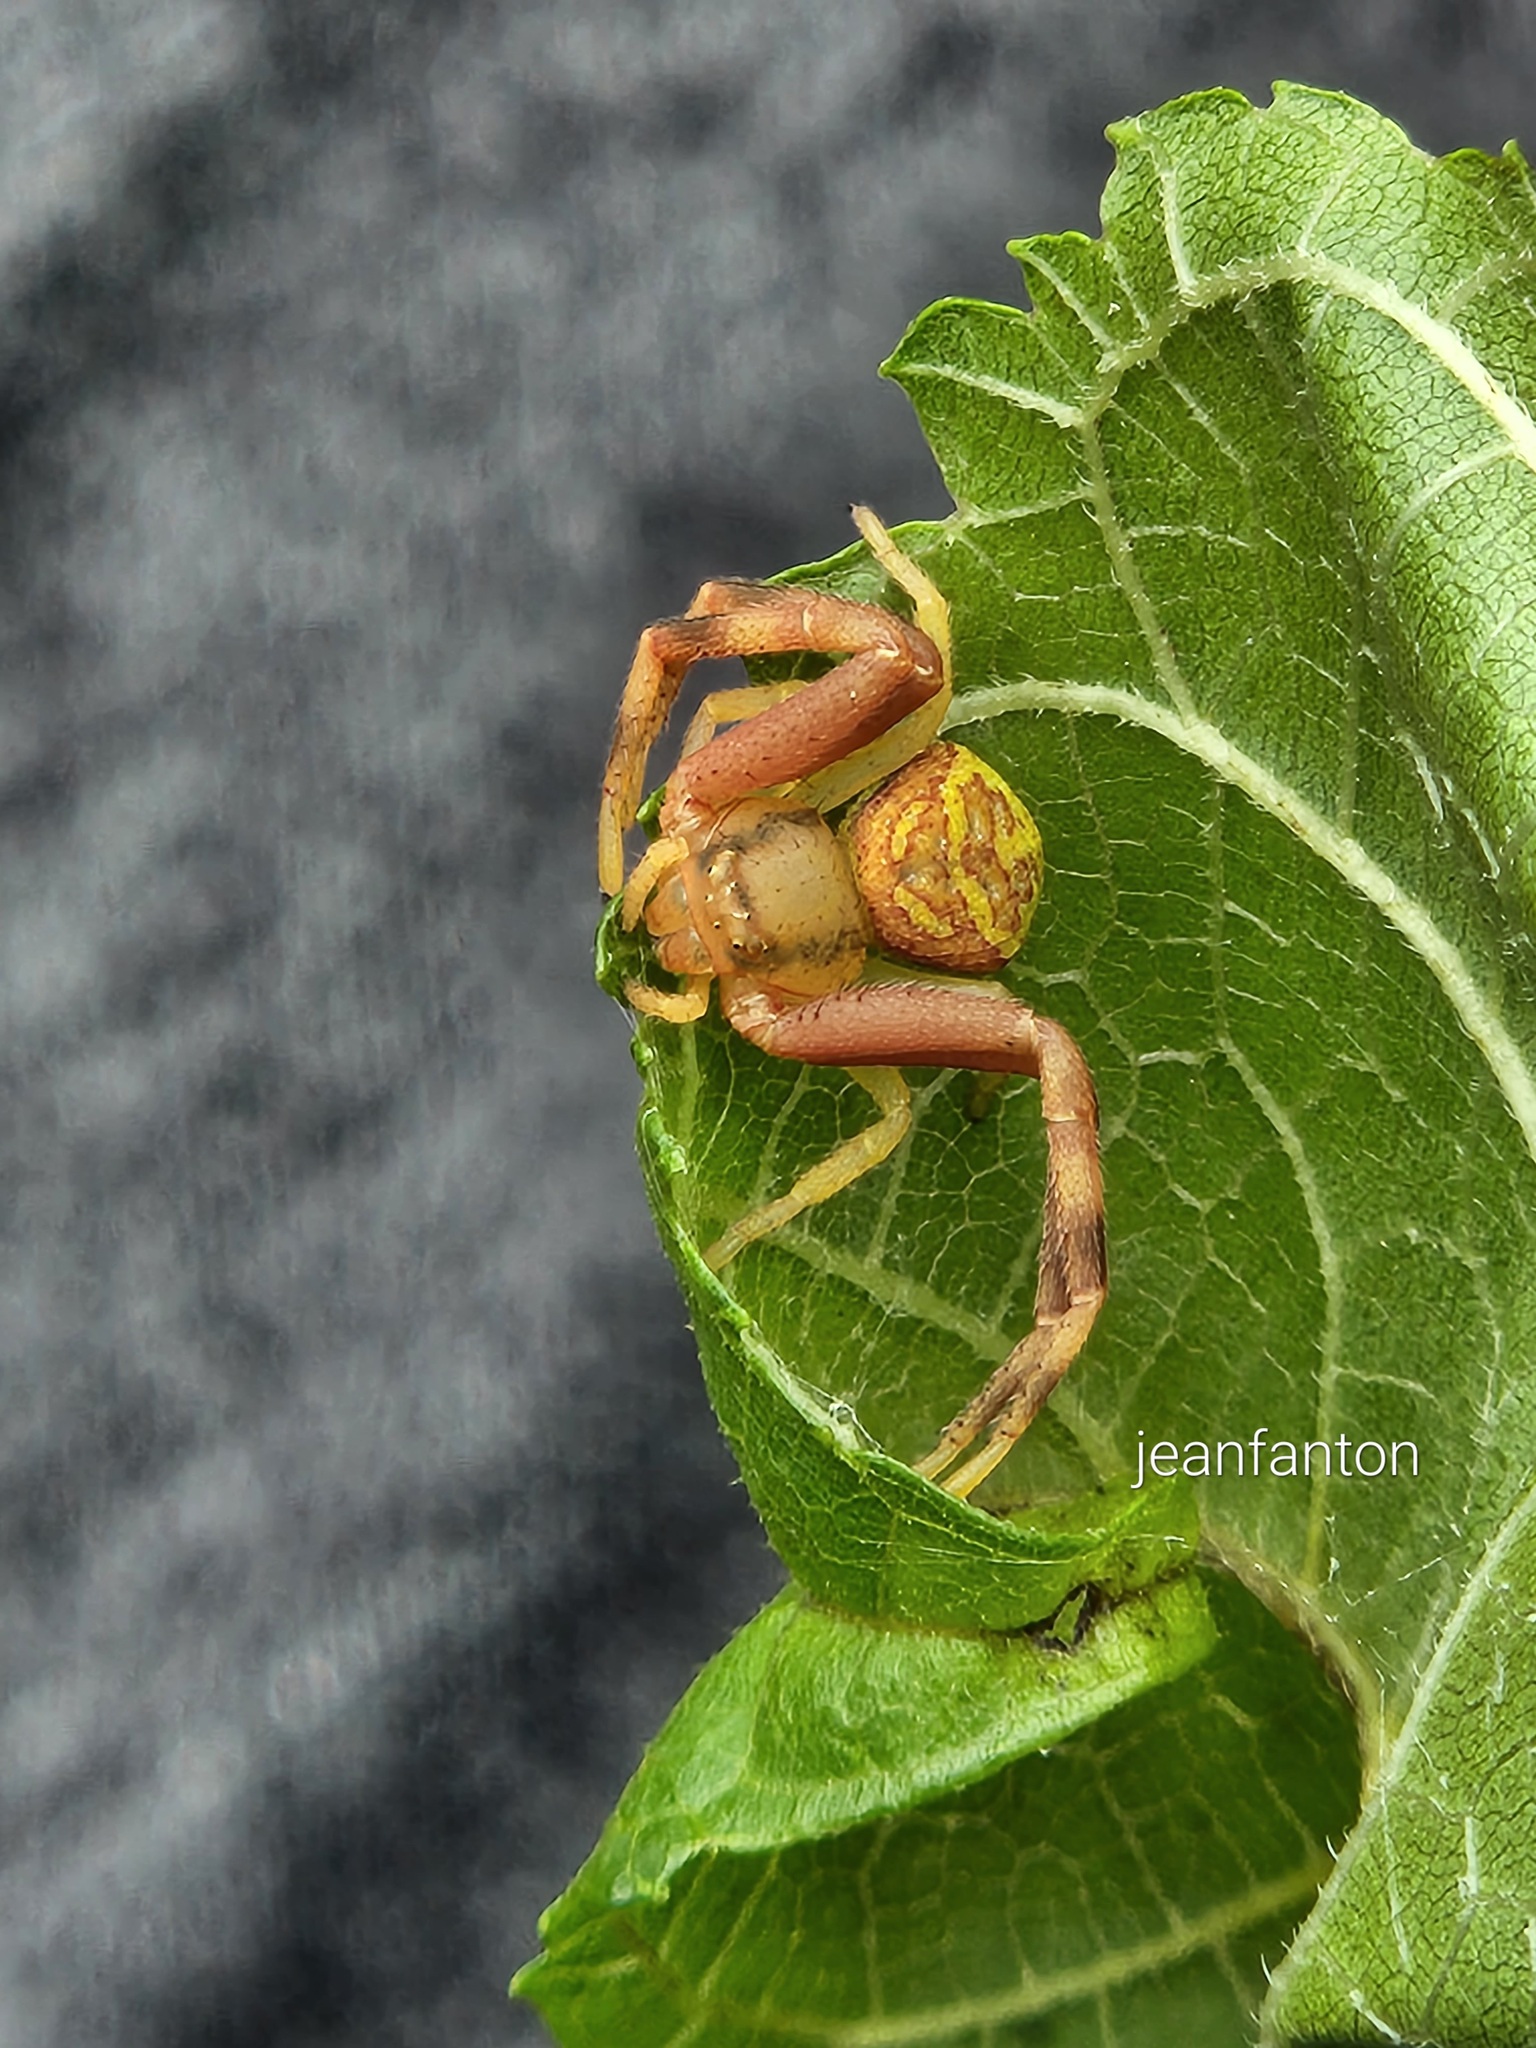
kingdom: Animalia
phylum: Arthropoda
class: Arachnida
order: Araneae
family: Thomisidae
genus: Runcinioides
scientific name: Runcinioides litteratus
